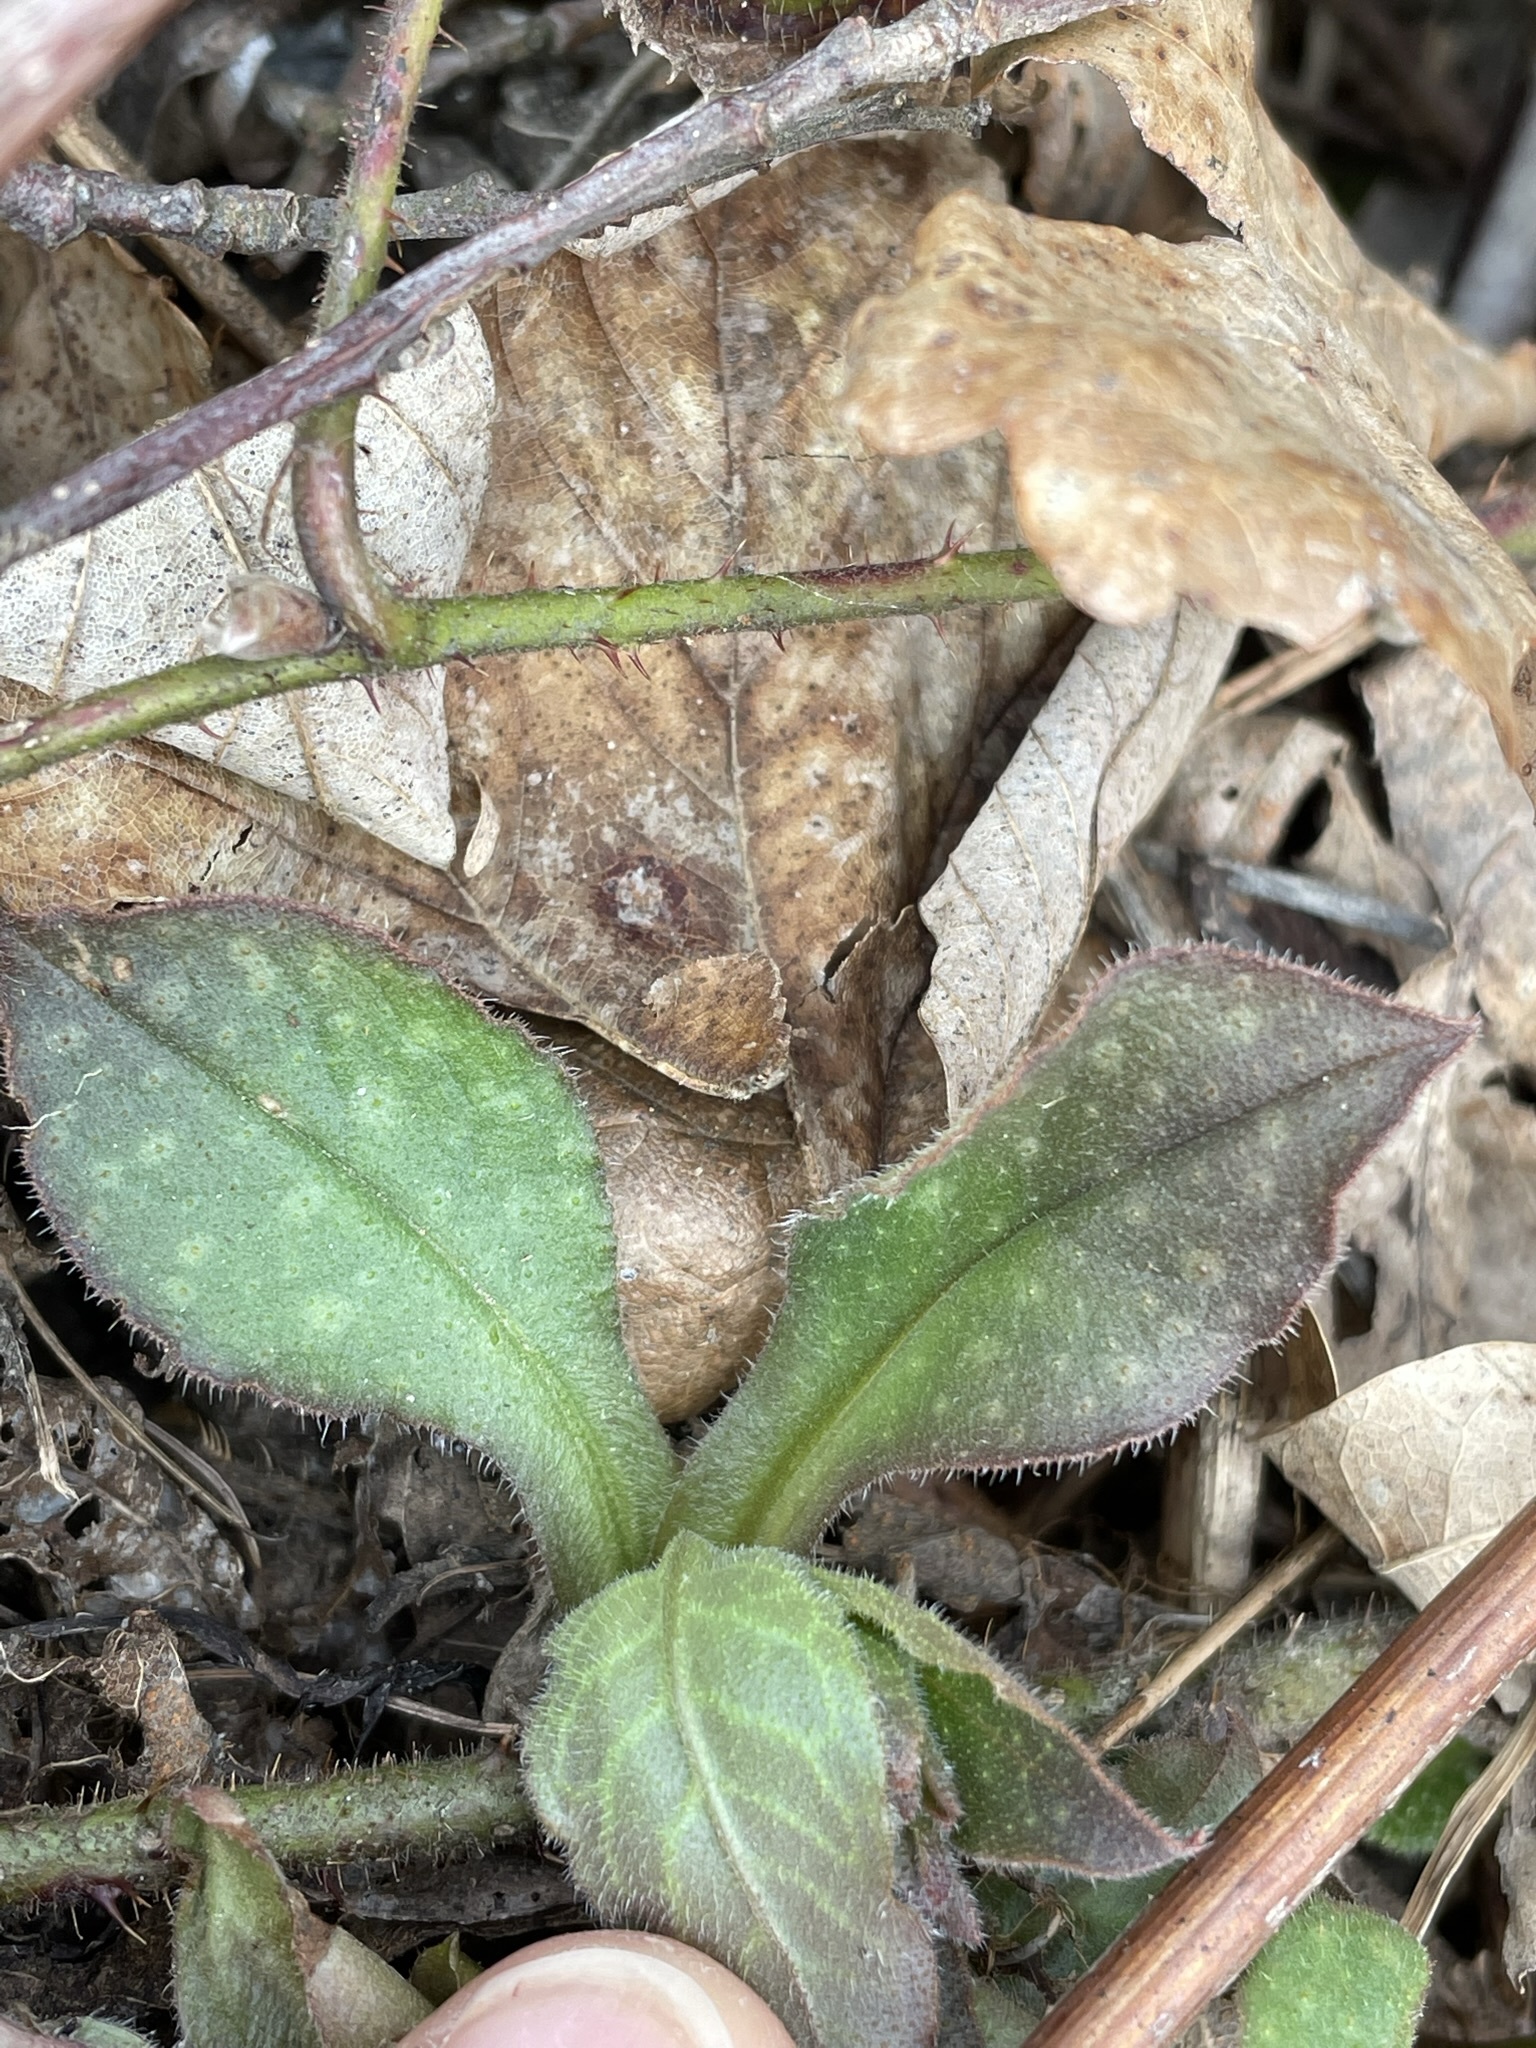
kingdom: Plantae
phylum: Tracheophyta
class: Magnoliopsida
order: Boraginales
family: Boraginaceae
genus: Pulmonaria
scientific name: Pulmonaria officinalis
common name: Lungwort
